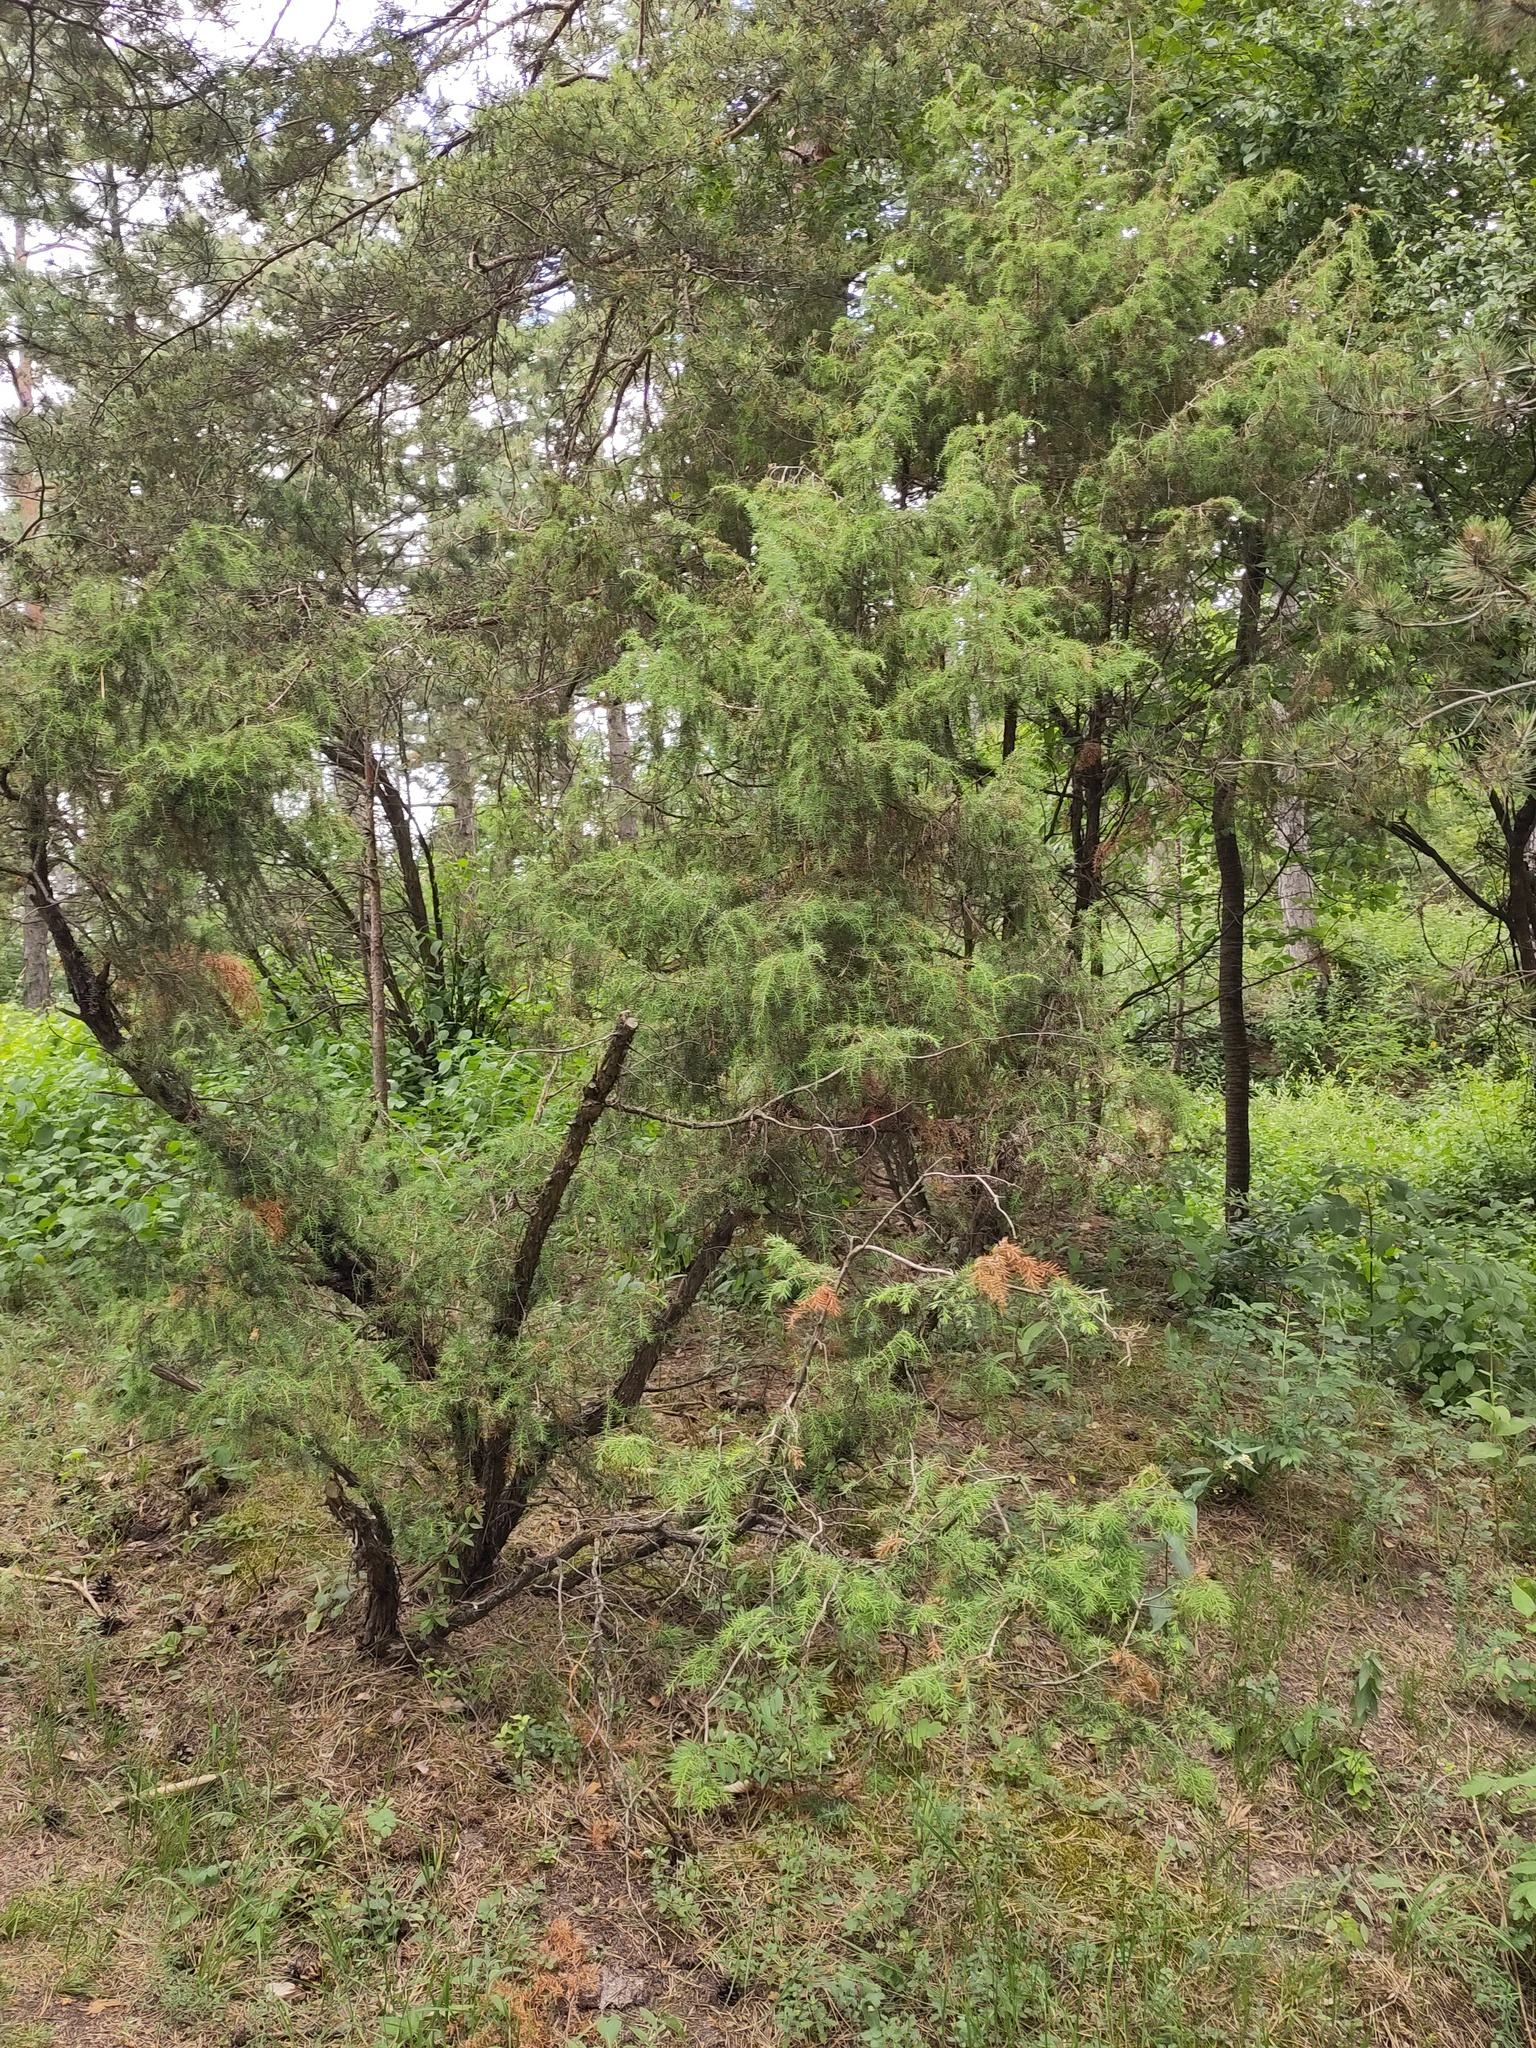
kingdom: Plantae
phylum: Tracheophyta
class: Pinopsida
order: Pinales
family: Cupressaceae
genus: Juniperus
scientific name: Juniperus communis
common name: Common juniper
